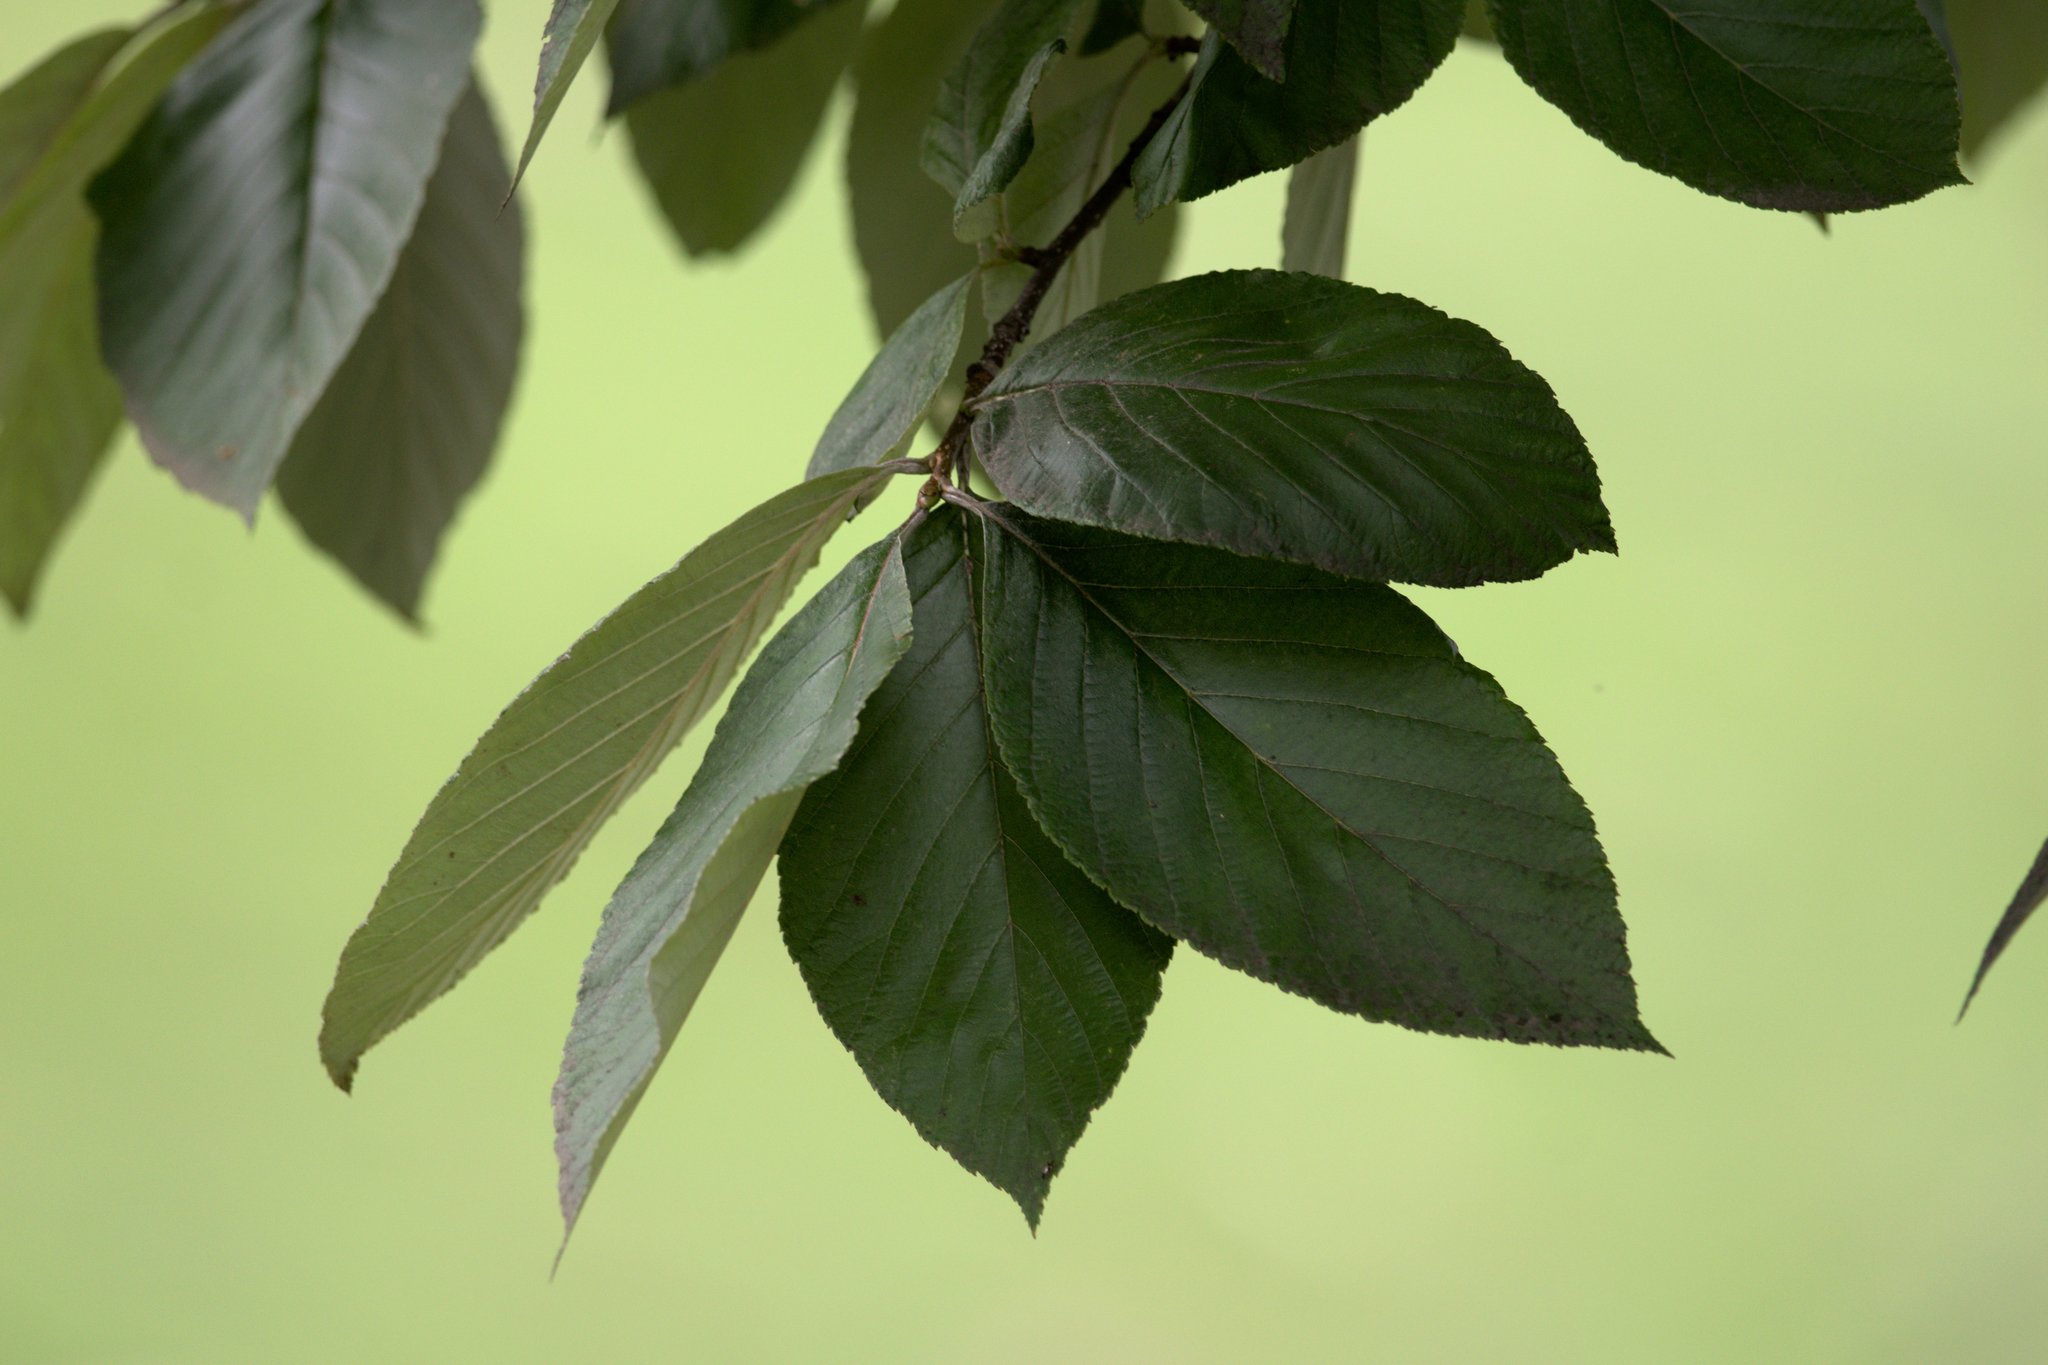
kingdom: Plantae
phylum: Tracheophyta
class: Magnoliopsida
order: Rosales
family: Rosaceae
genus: Sorbus
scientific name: Sorbus vestita
